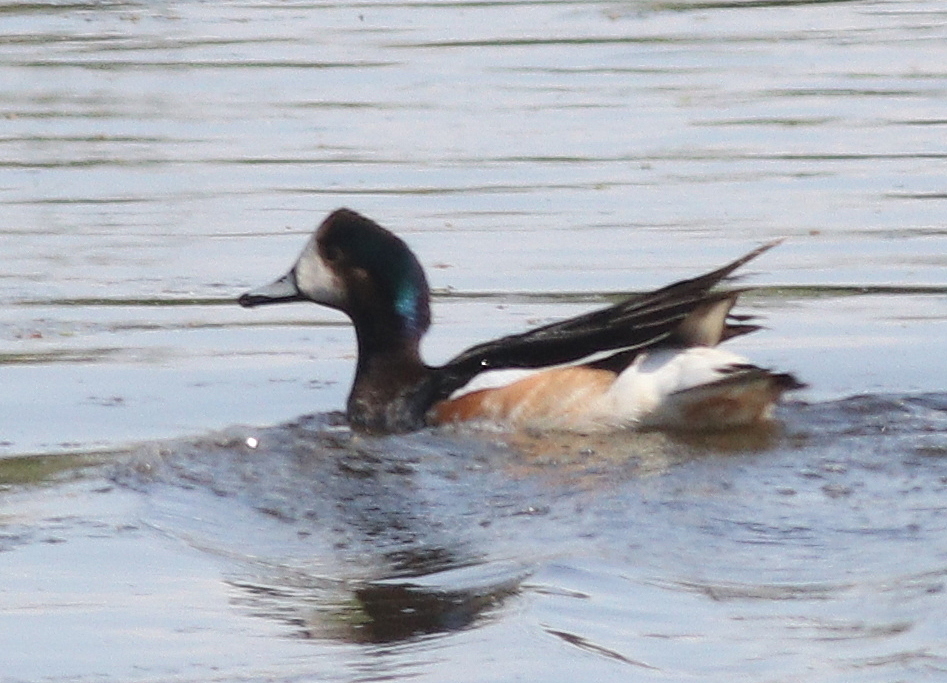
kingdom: Animalia
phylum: Chordata
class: Aves
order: Anseriformes
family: Anatidae
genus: Mareca
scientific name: Mareca sibilatrix
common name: Chiloe wigeon
